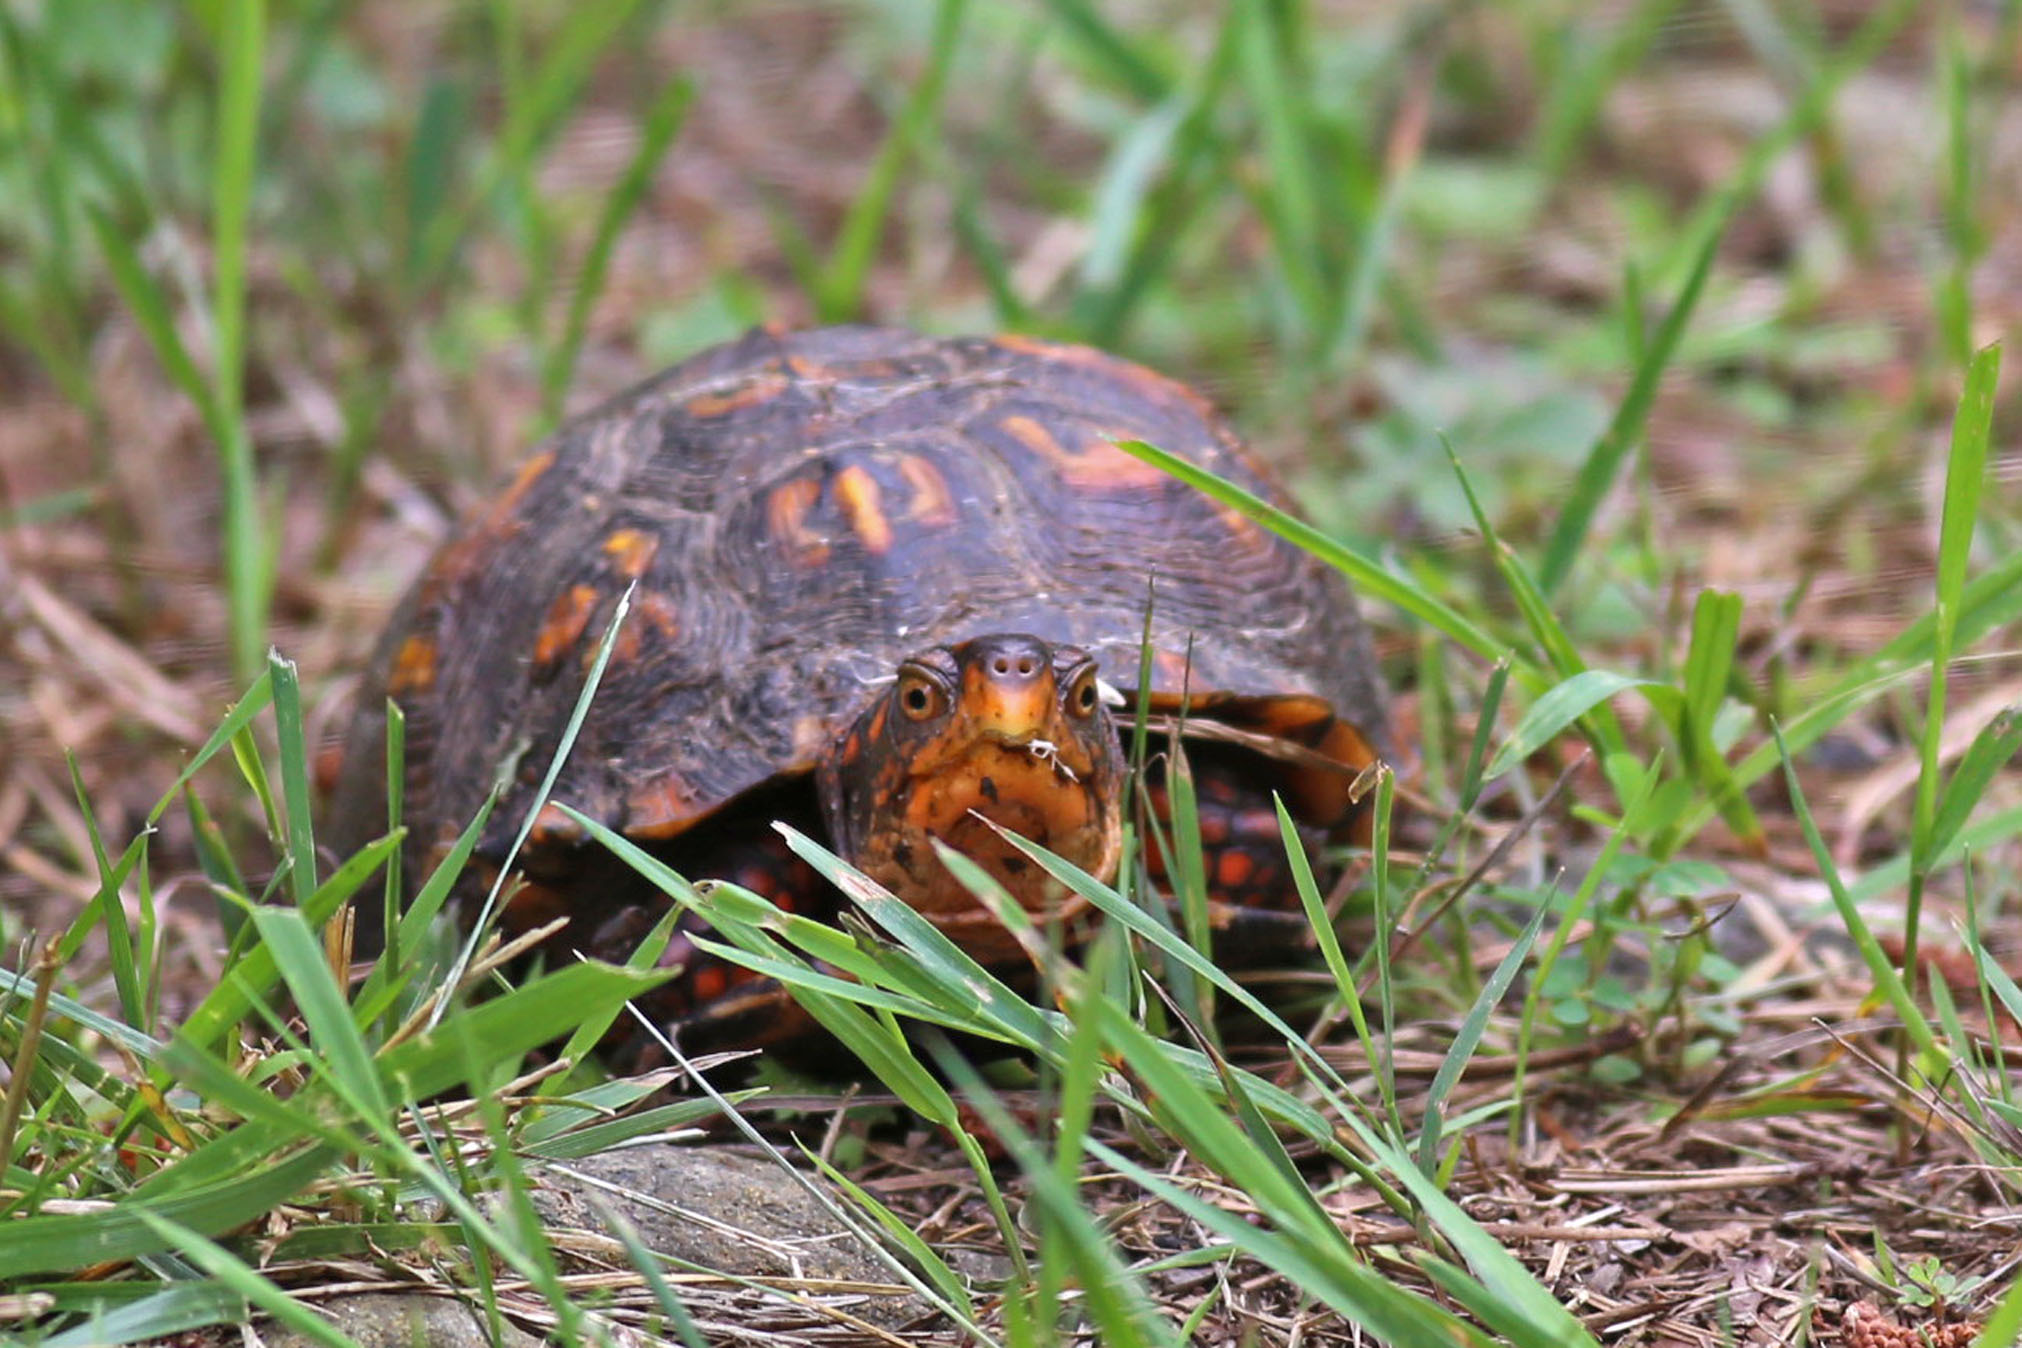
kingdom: Animalia
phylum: Chordata
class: Testudines
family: Emydidae
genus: Terrapene
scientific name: Terrapene carolina
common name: Common box turtle
